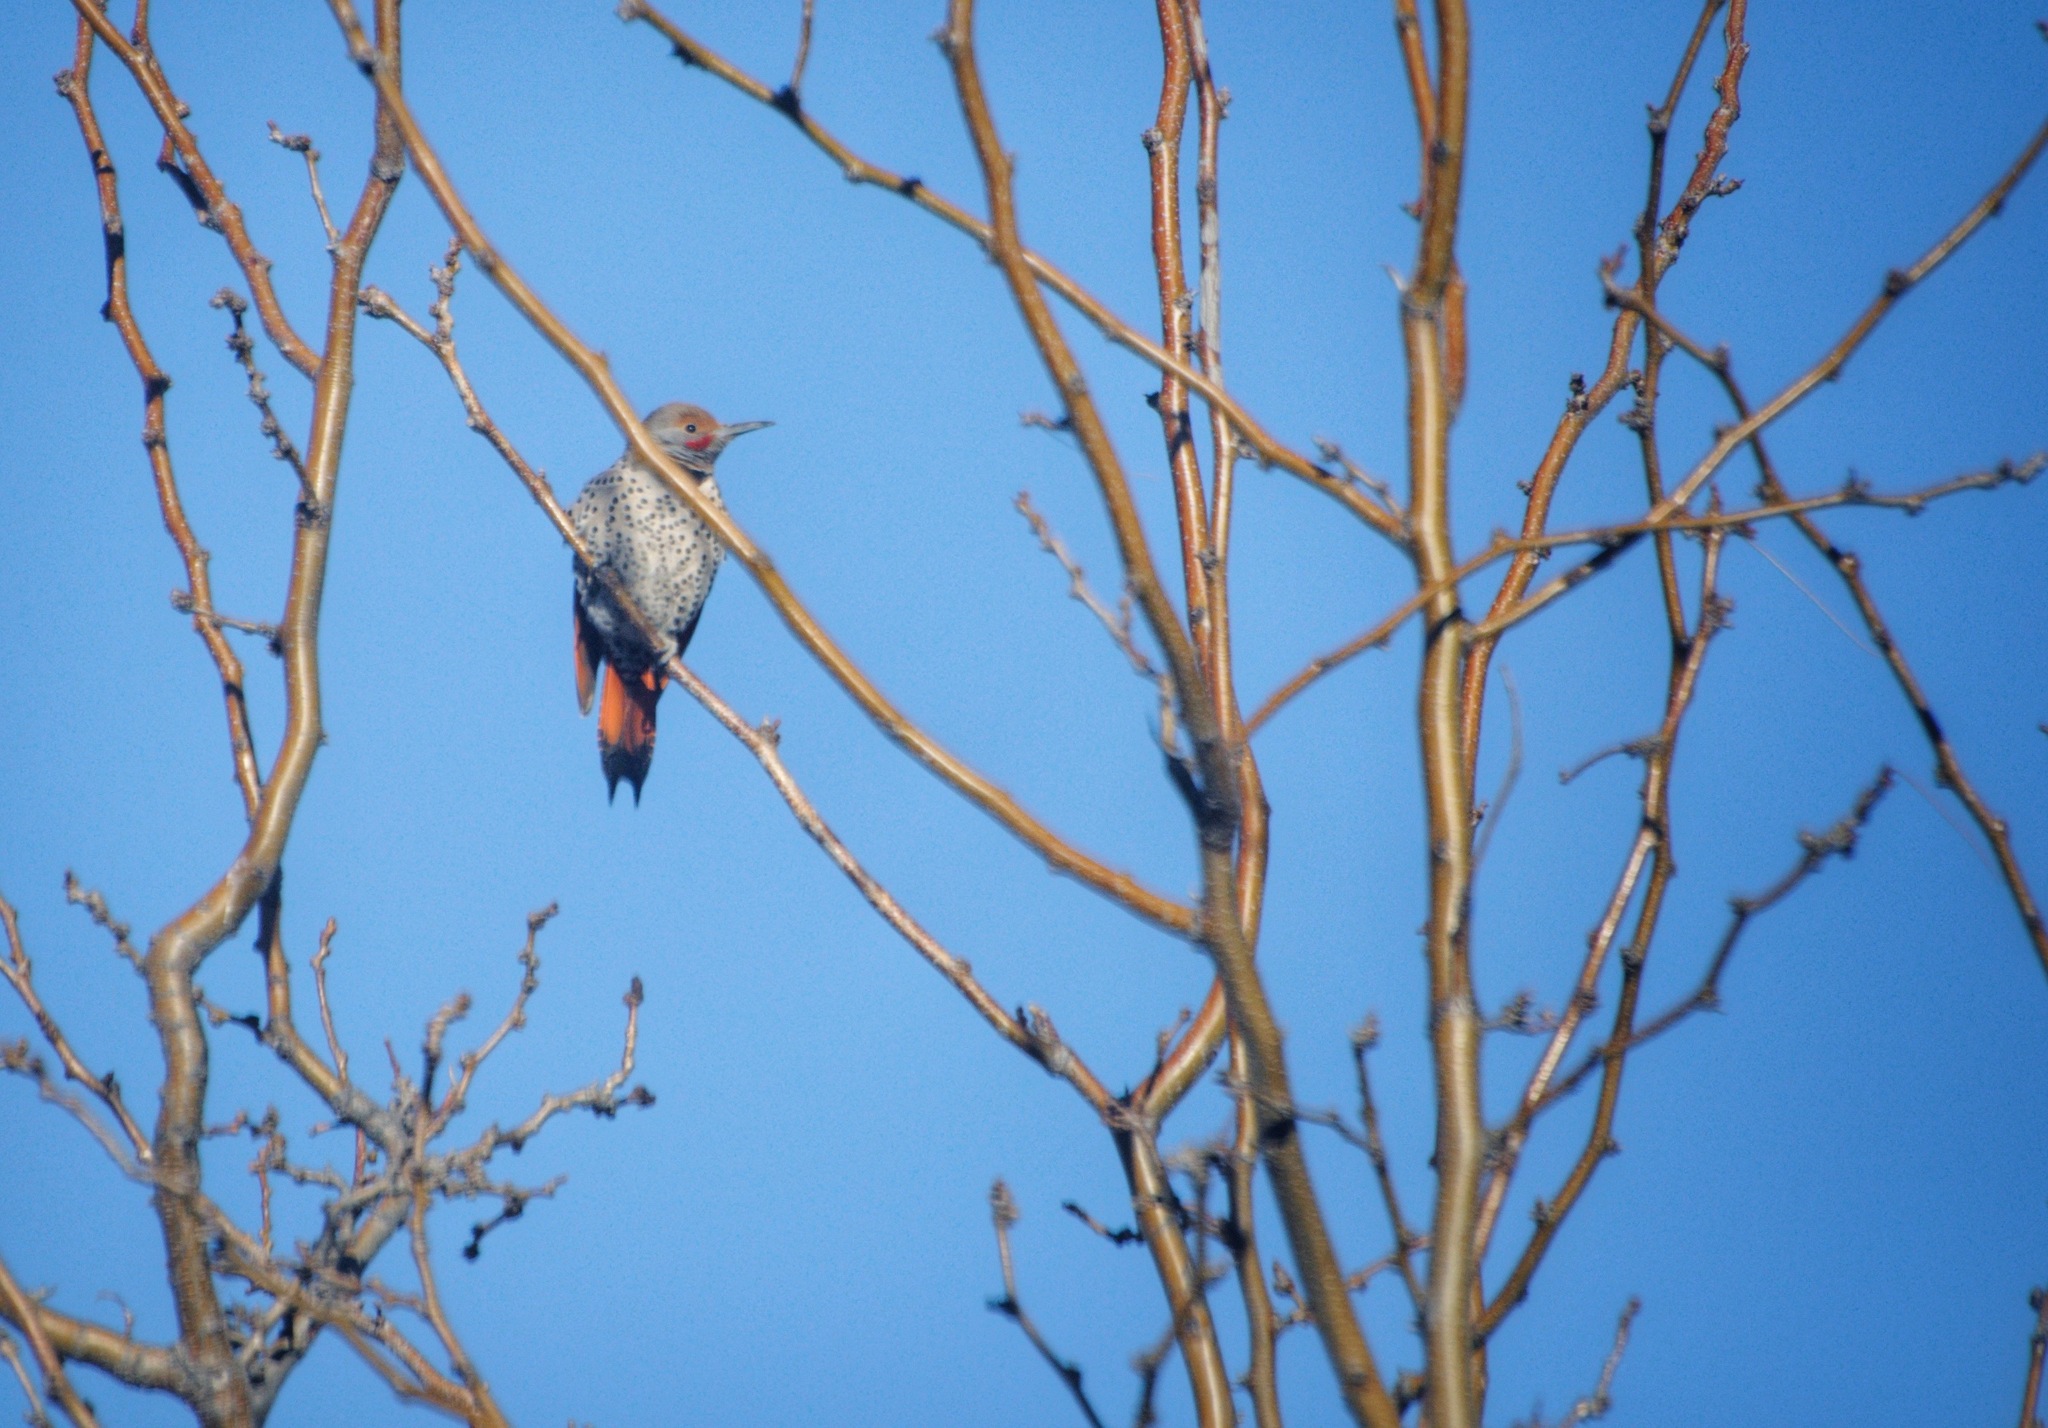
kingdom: Animalia
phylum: Chordata
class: Aves
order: Piciformes
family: Picidae
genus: Colaptes
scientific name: Colaptes auratus
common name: Northern flicker
